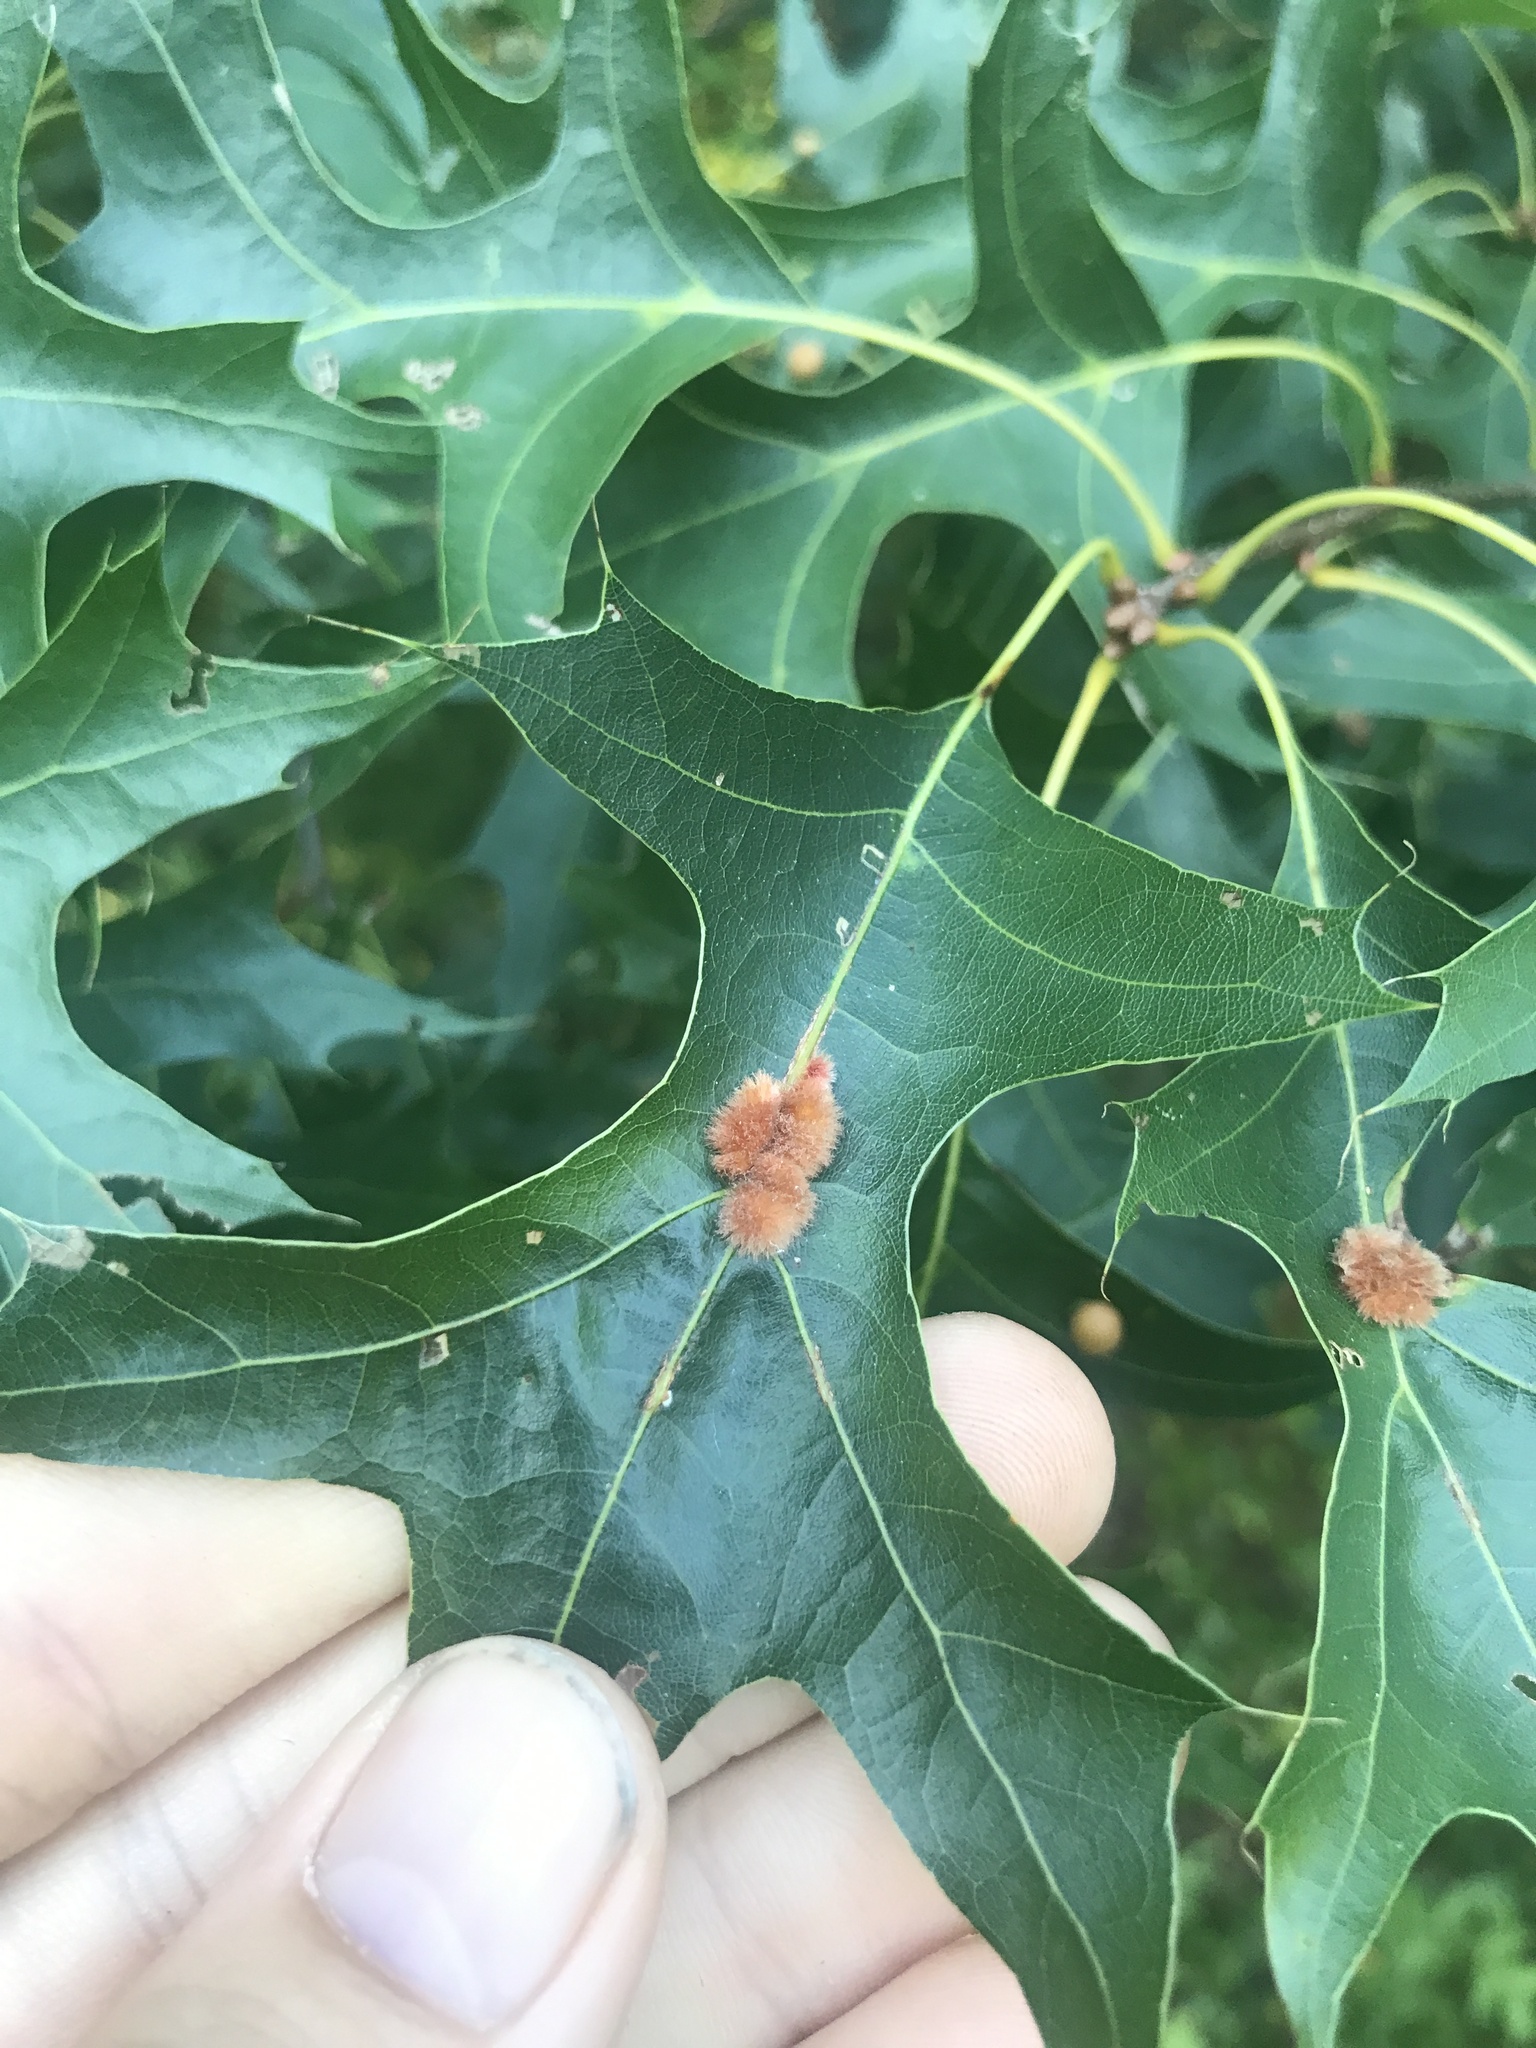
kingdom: Animalia
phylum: Arthropoda
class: Insecta
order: Hymenoptera
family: Cynipidae
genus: Callirhytis
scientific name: Callirhytis
